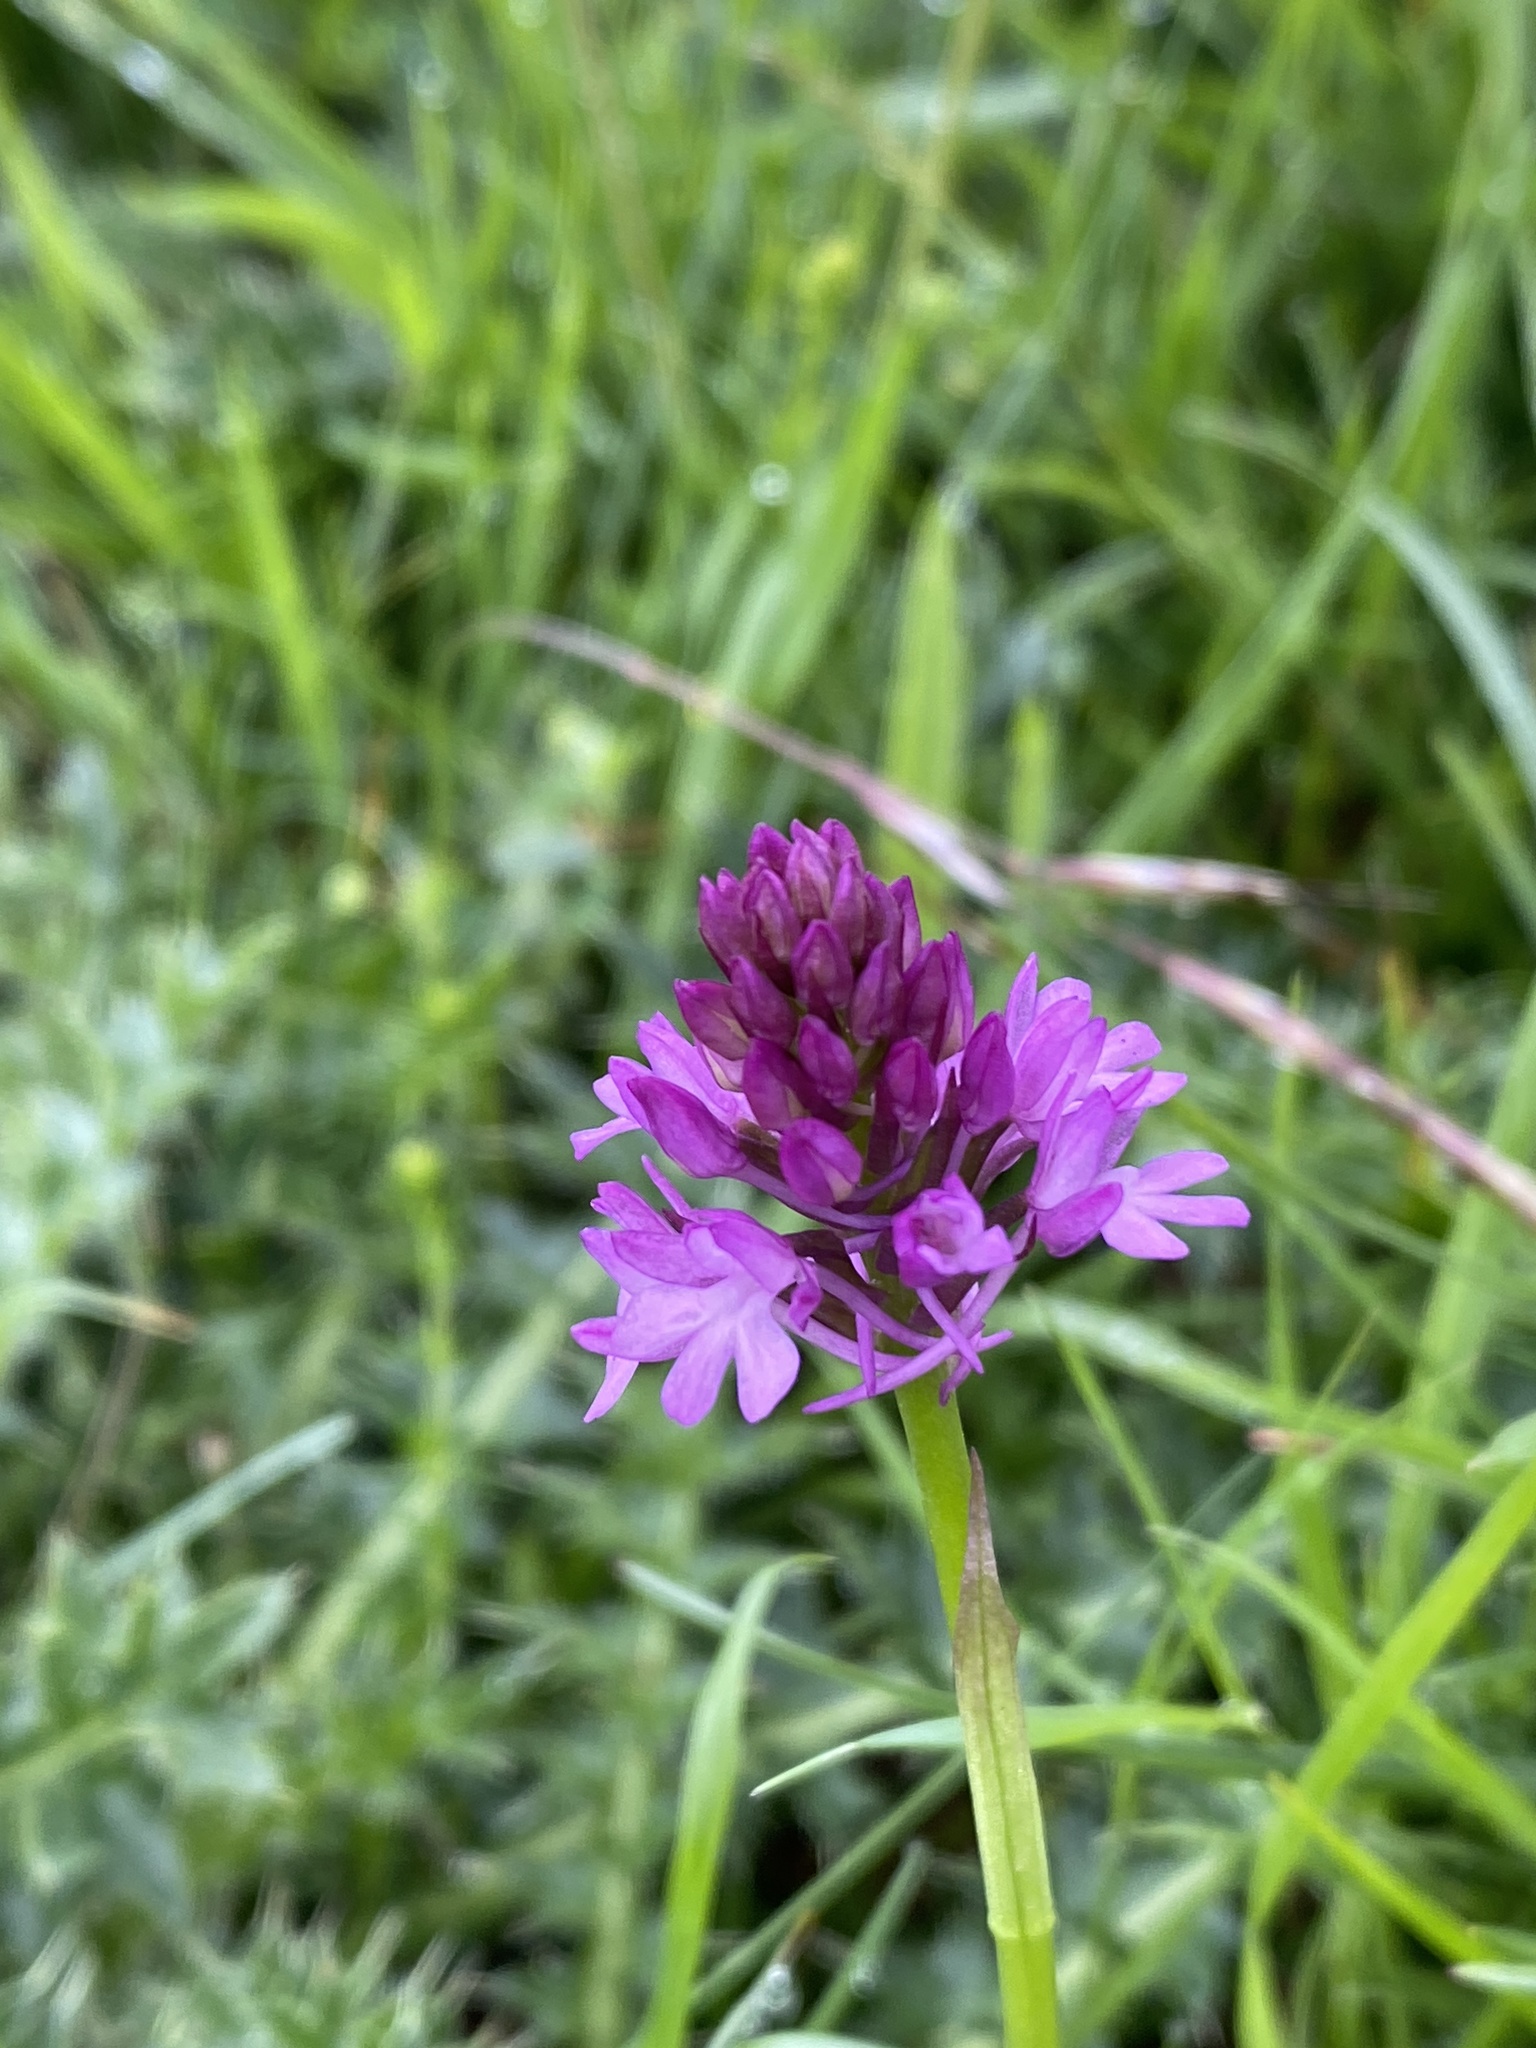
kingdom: Plantae
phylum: Tracheophyta
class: Liliopsida
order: Asparagales
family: Orchidaceae
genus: Anacamptis
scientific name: Anacamptis pyramidalis
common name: Pyramidal orchid
